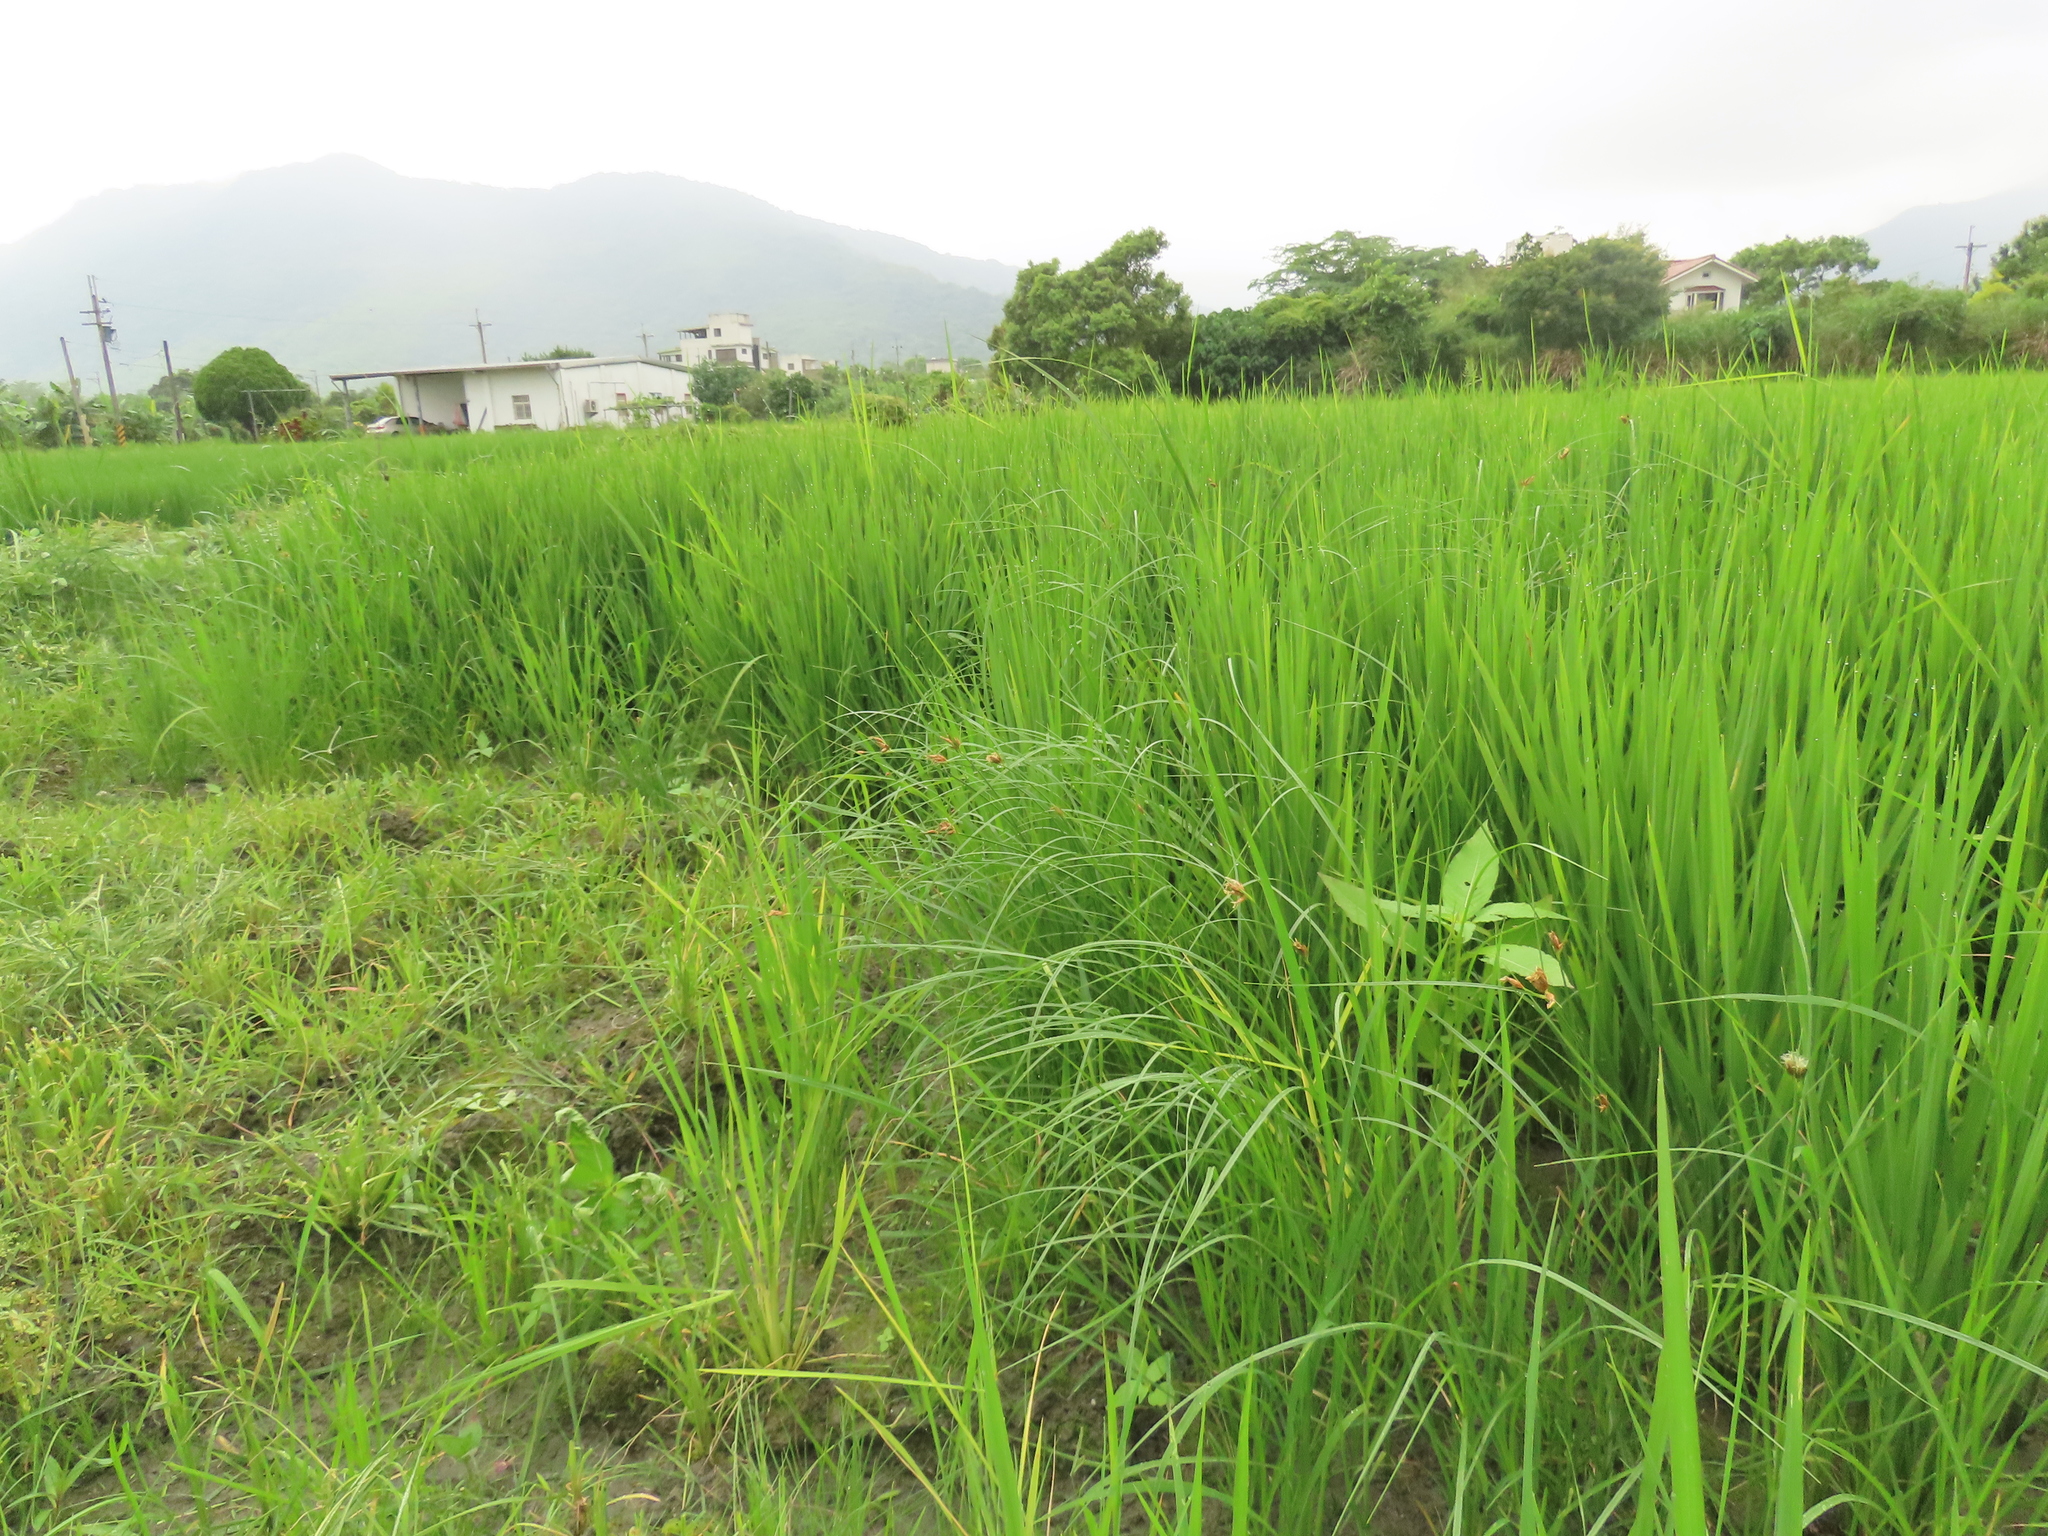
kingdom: Plantae
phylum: Tracheophyta
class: Liliopsida
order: Poales
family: Cyperaceae
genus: Bolboschoenus
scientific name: Bolboschoenus maritimus
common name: Sea club-rush
